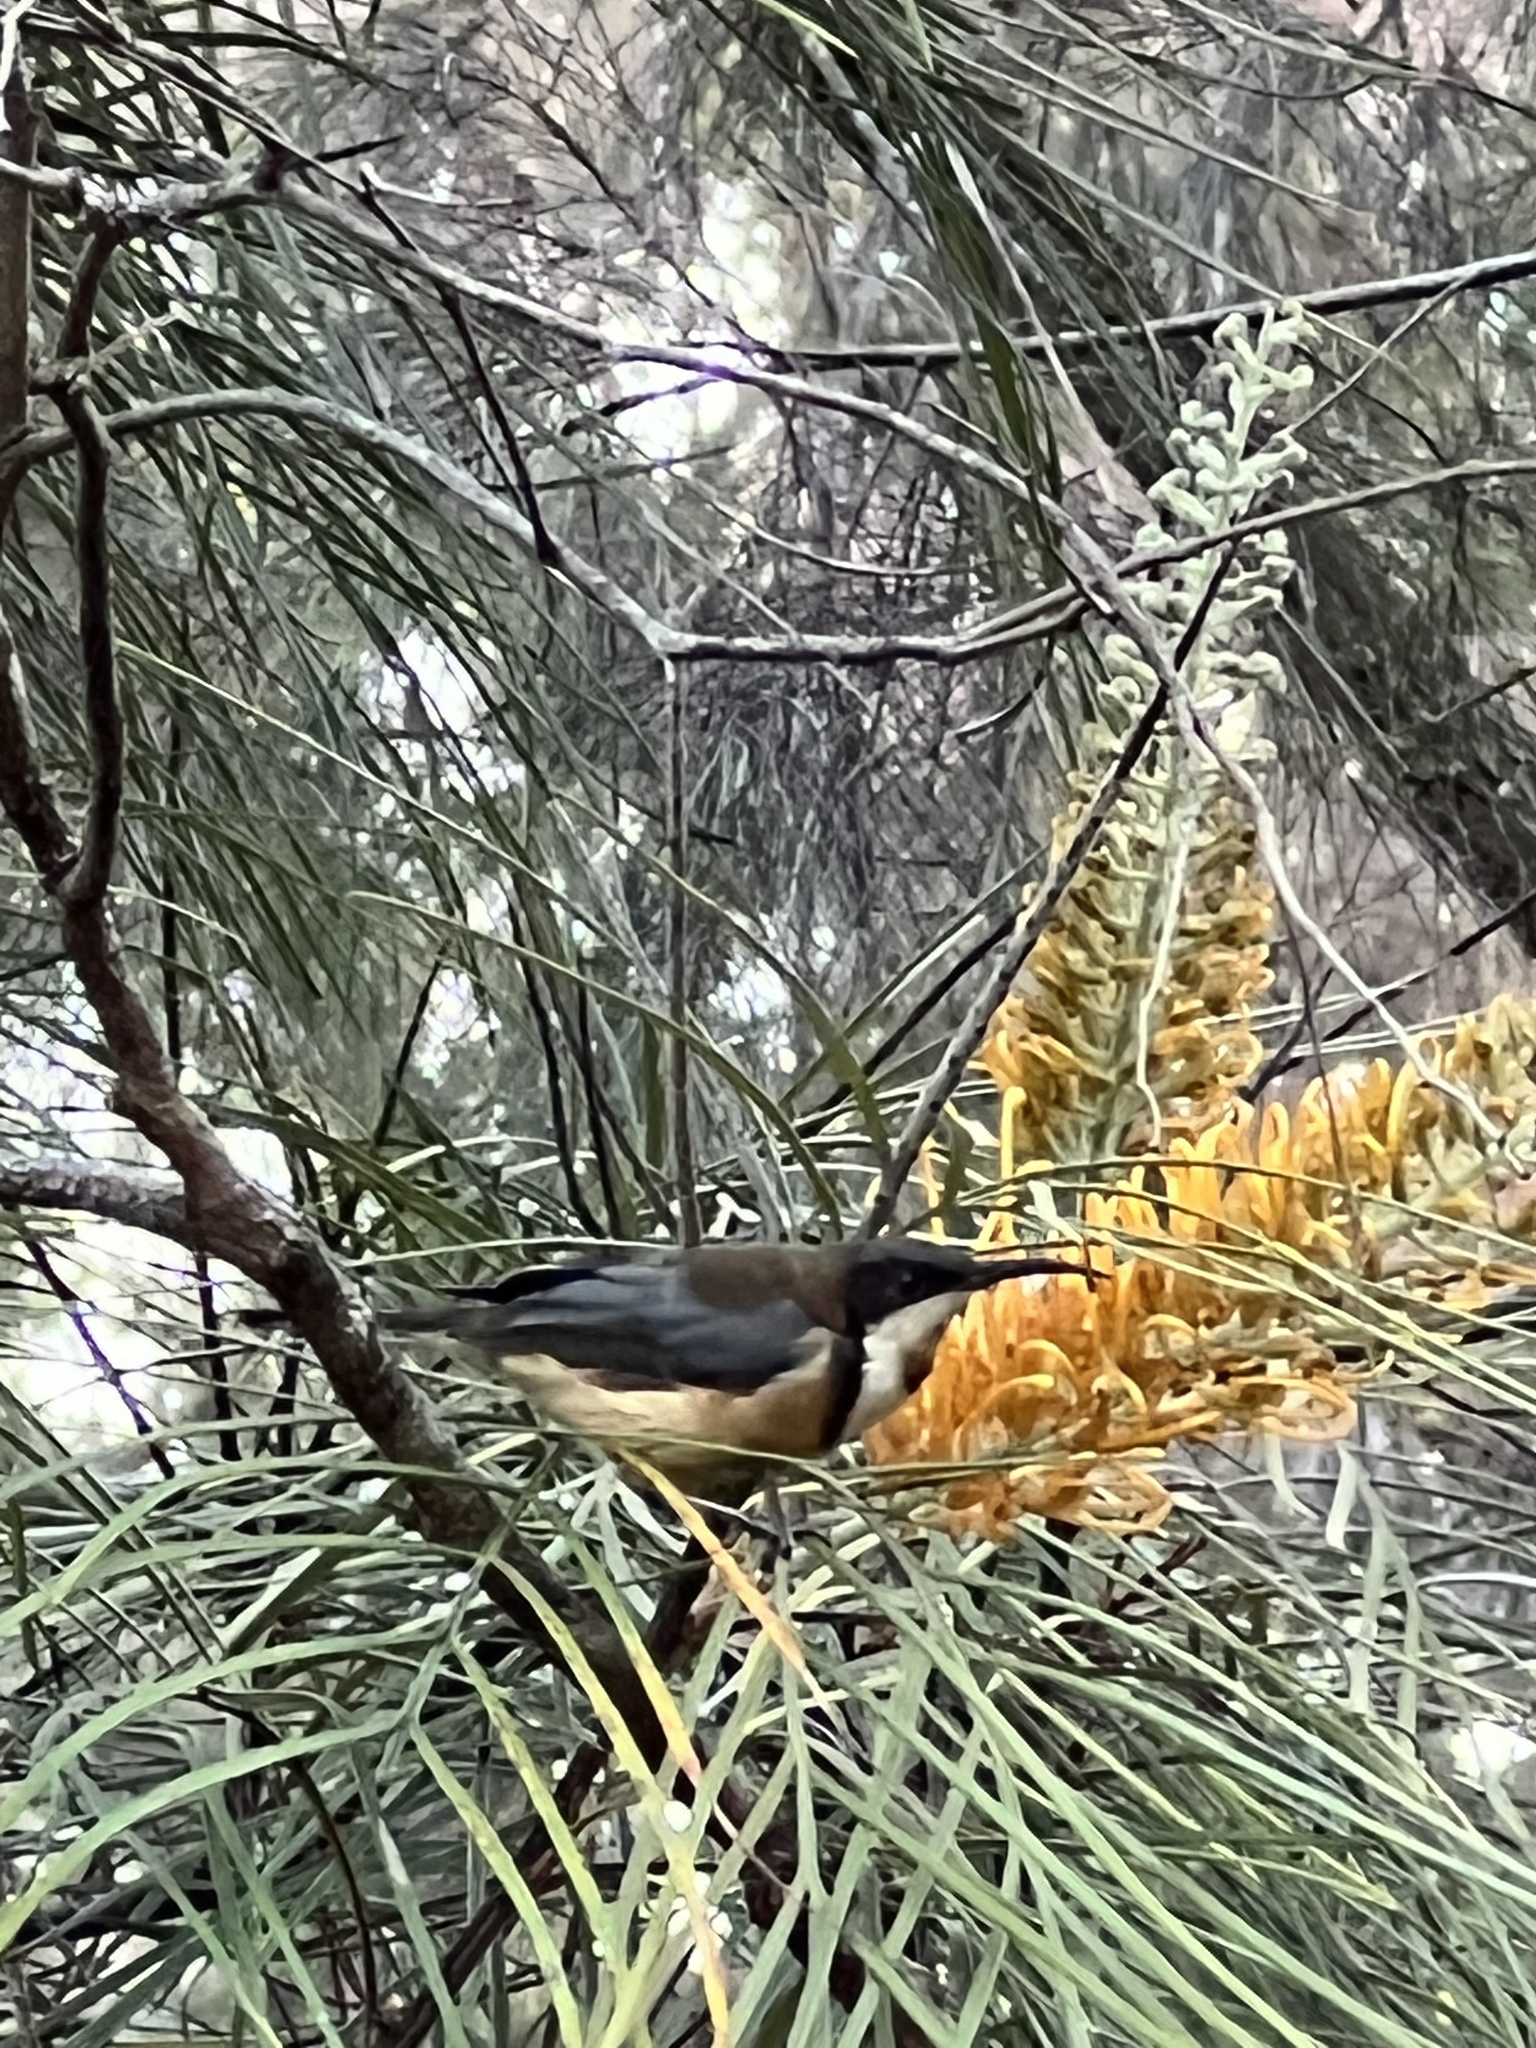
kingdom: Animalia
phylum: Chordata
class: Aves
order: Passeriformes
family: Meliphagidae
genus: Acanthorhynchus
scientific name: Acanthorhynchus tenuirostris
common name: Eastern spinebill
